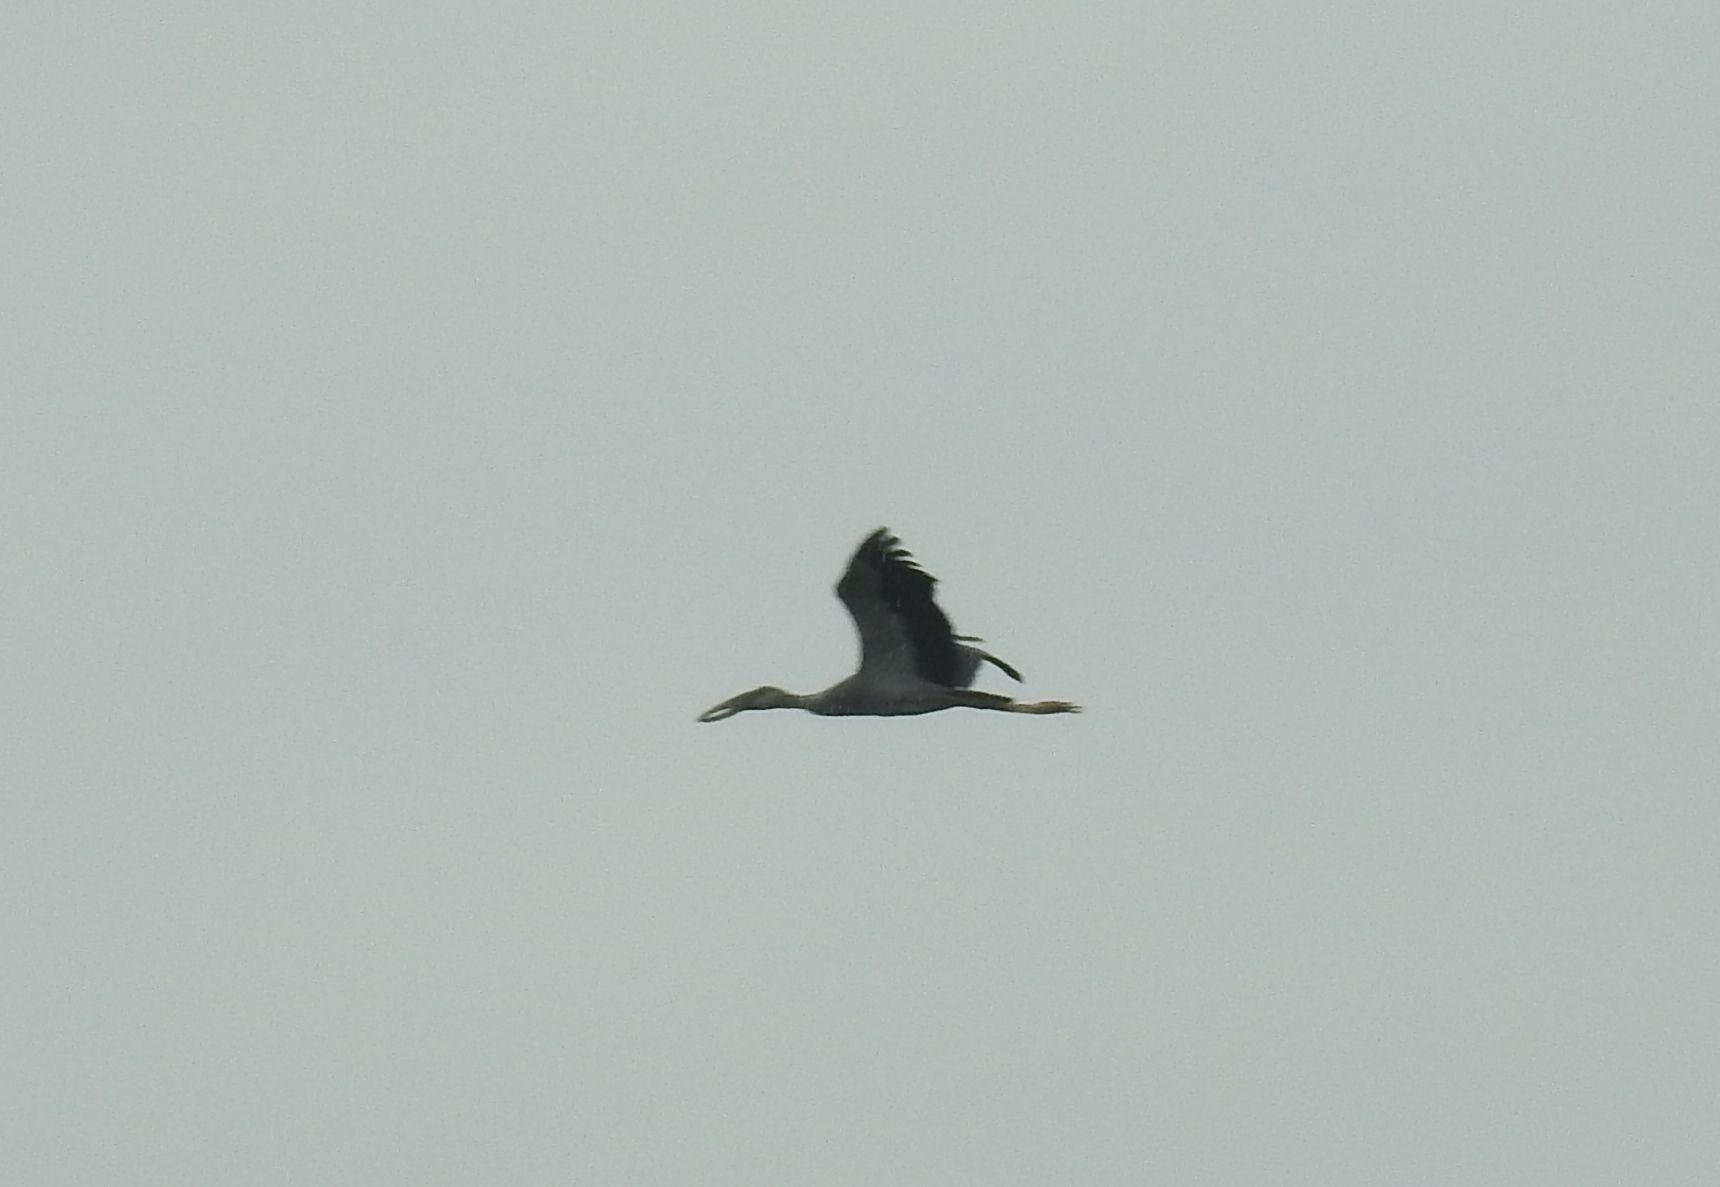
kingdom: Animalia
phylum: Chordata
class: Aves
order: Ciconiiformes
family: Ciconiidae
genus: Anastomus
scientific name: Anastomus oscitans
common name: Asian openbill
